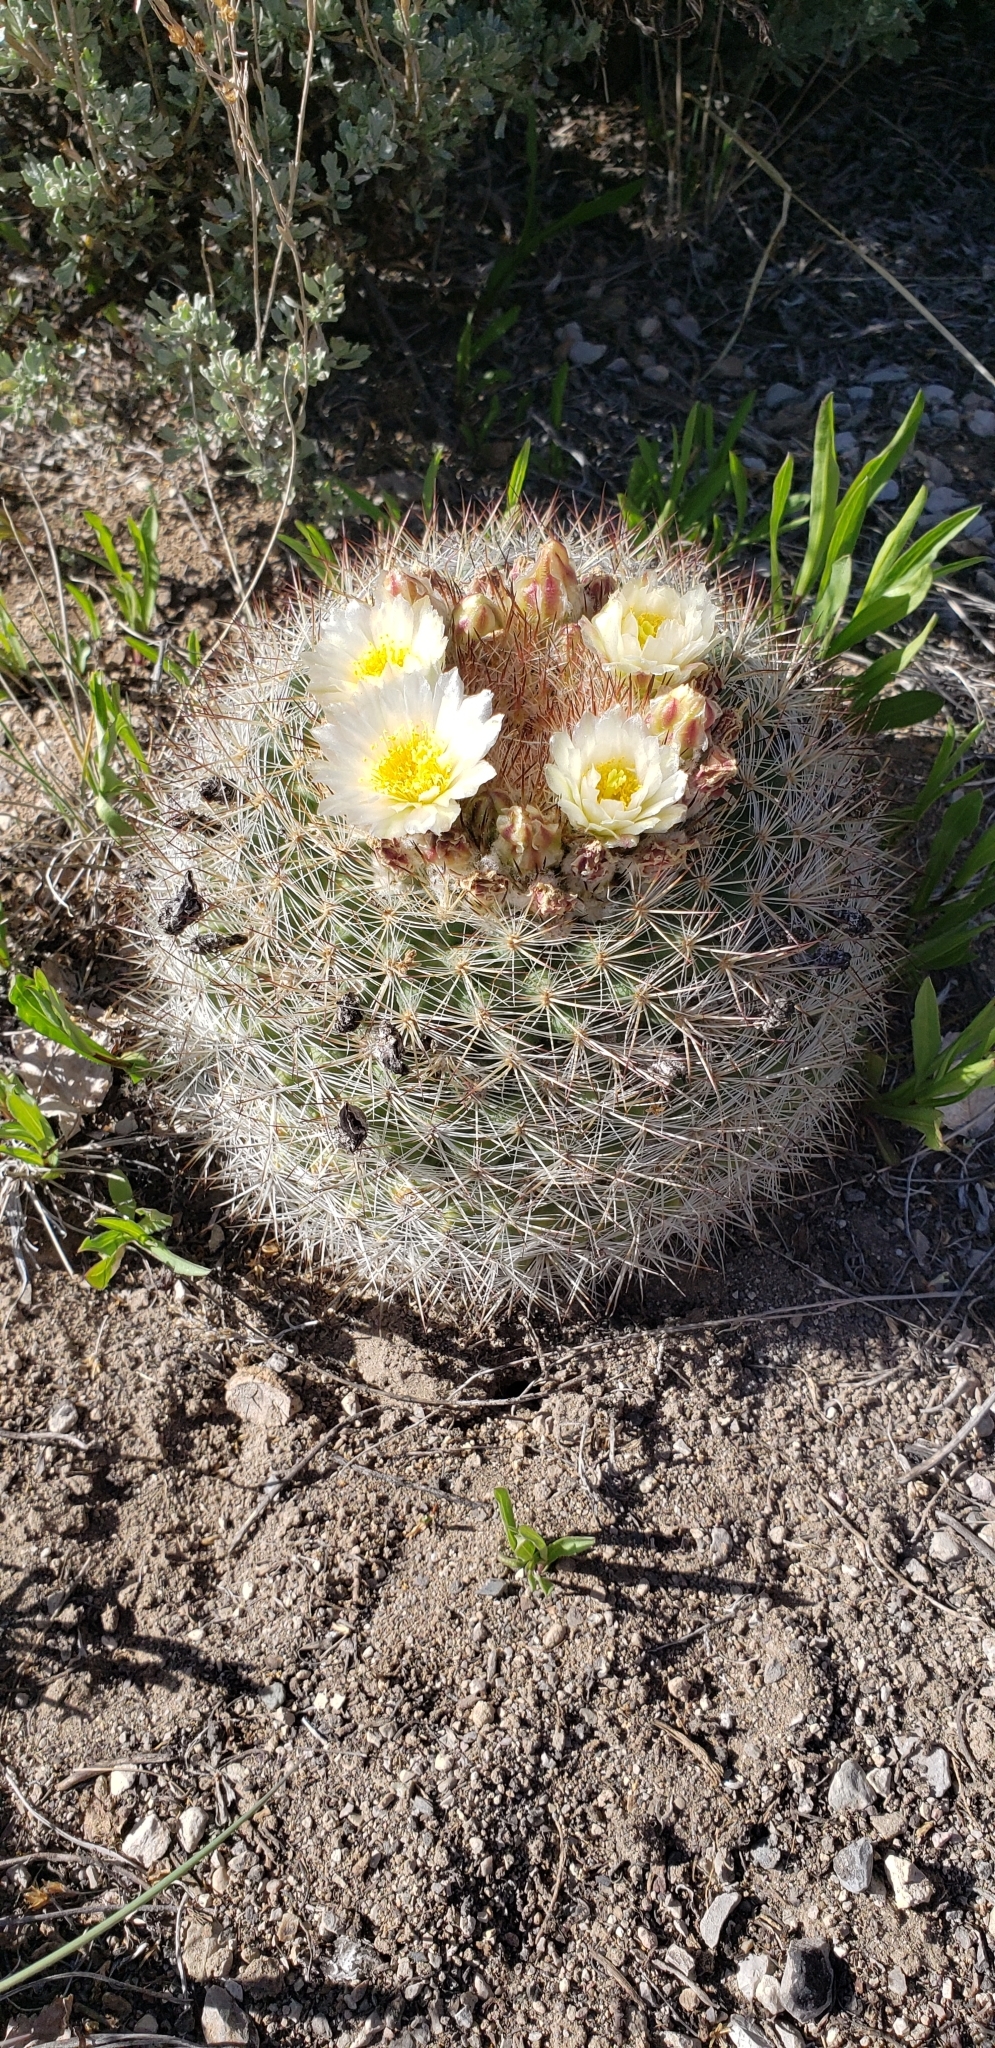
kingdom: Plantae
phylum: Tracheophyta
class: Magnoliopsida
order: Caryophyllales
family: Cactaceae
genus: Pediocactus
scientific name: Pediocactus simpsonii
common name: Simpson's hedgehog cactus
